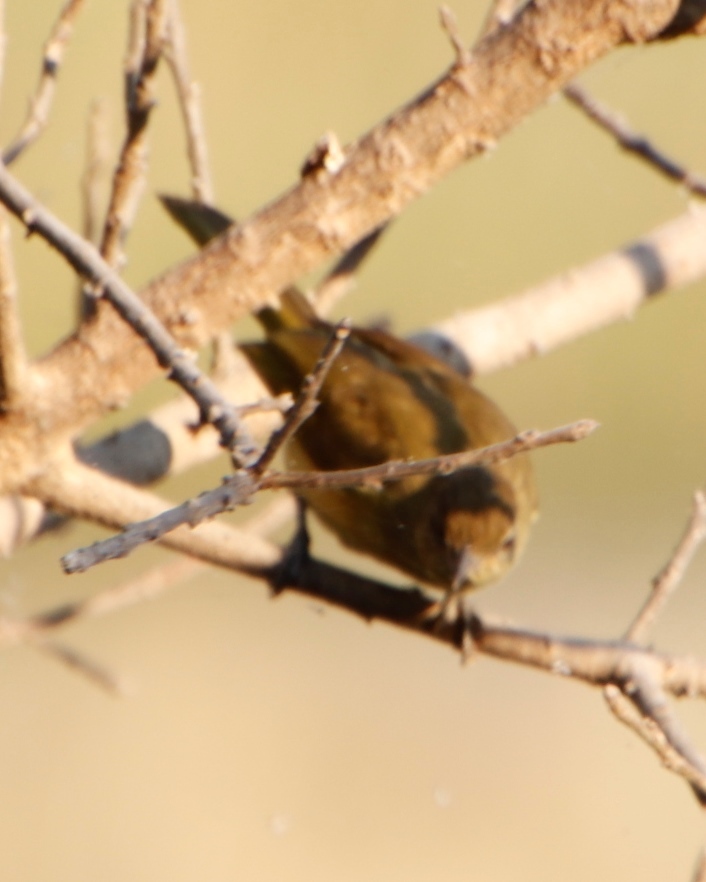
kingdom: Animalia
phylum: Chordata
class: Aves
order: Passeriformes
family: Pycnonotidae
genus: Chlorocichla
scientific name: Chlorocichla flaviventris
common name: Yellow-bellied greenbul
